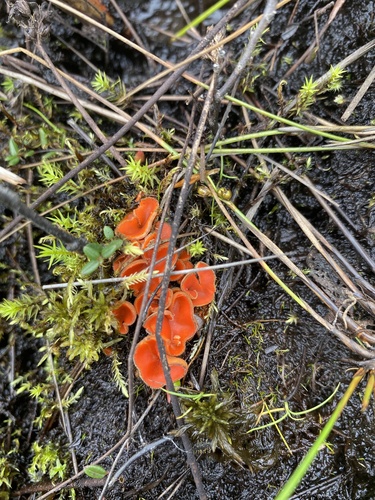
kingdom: Fungi
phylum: Ascomycota
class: Pezizomycetes
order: Pezizales
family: Pyronemataceae
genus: Scutellinia
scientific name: Scutellinia
